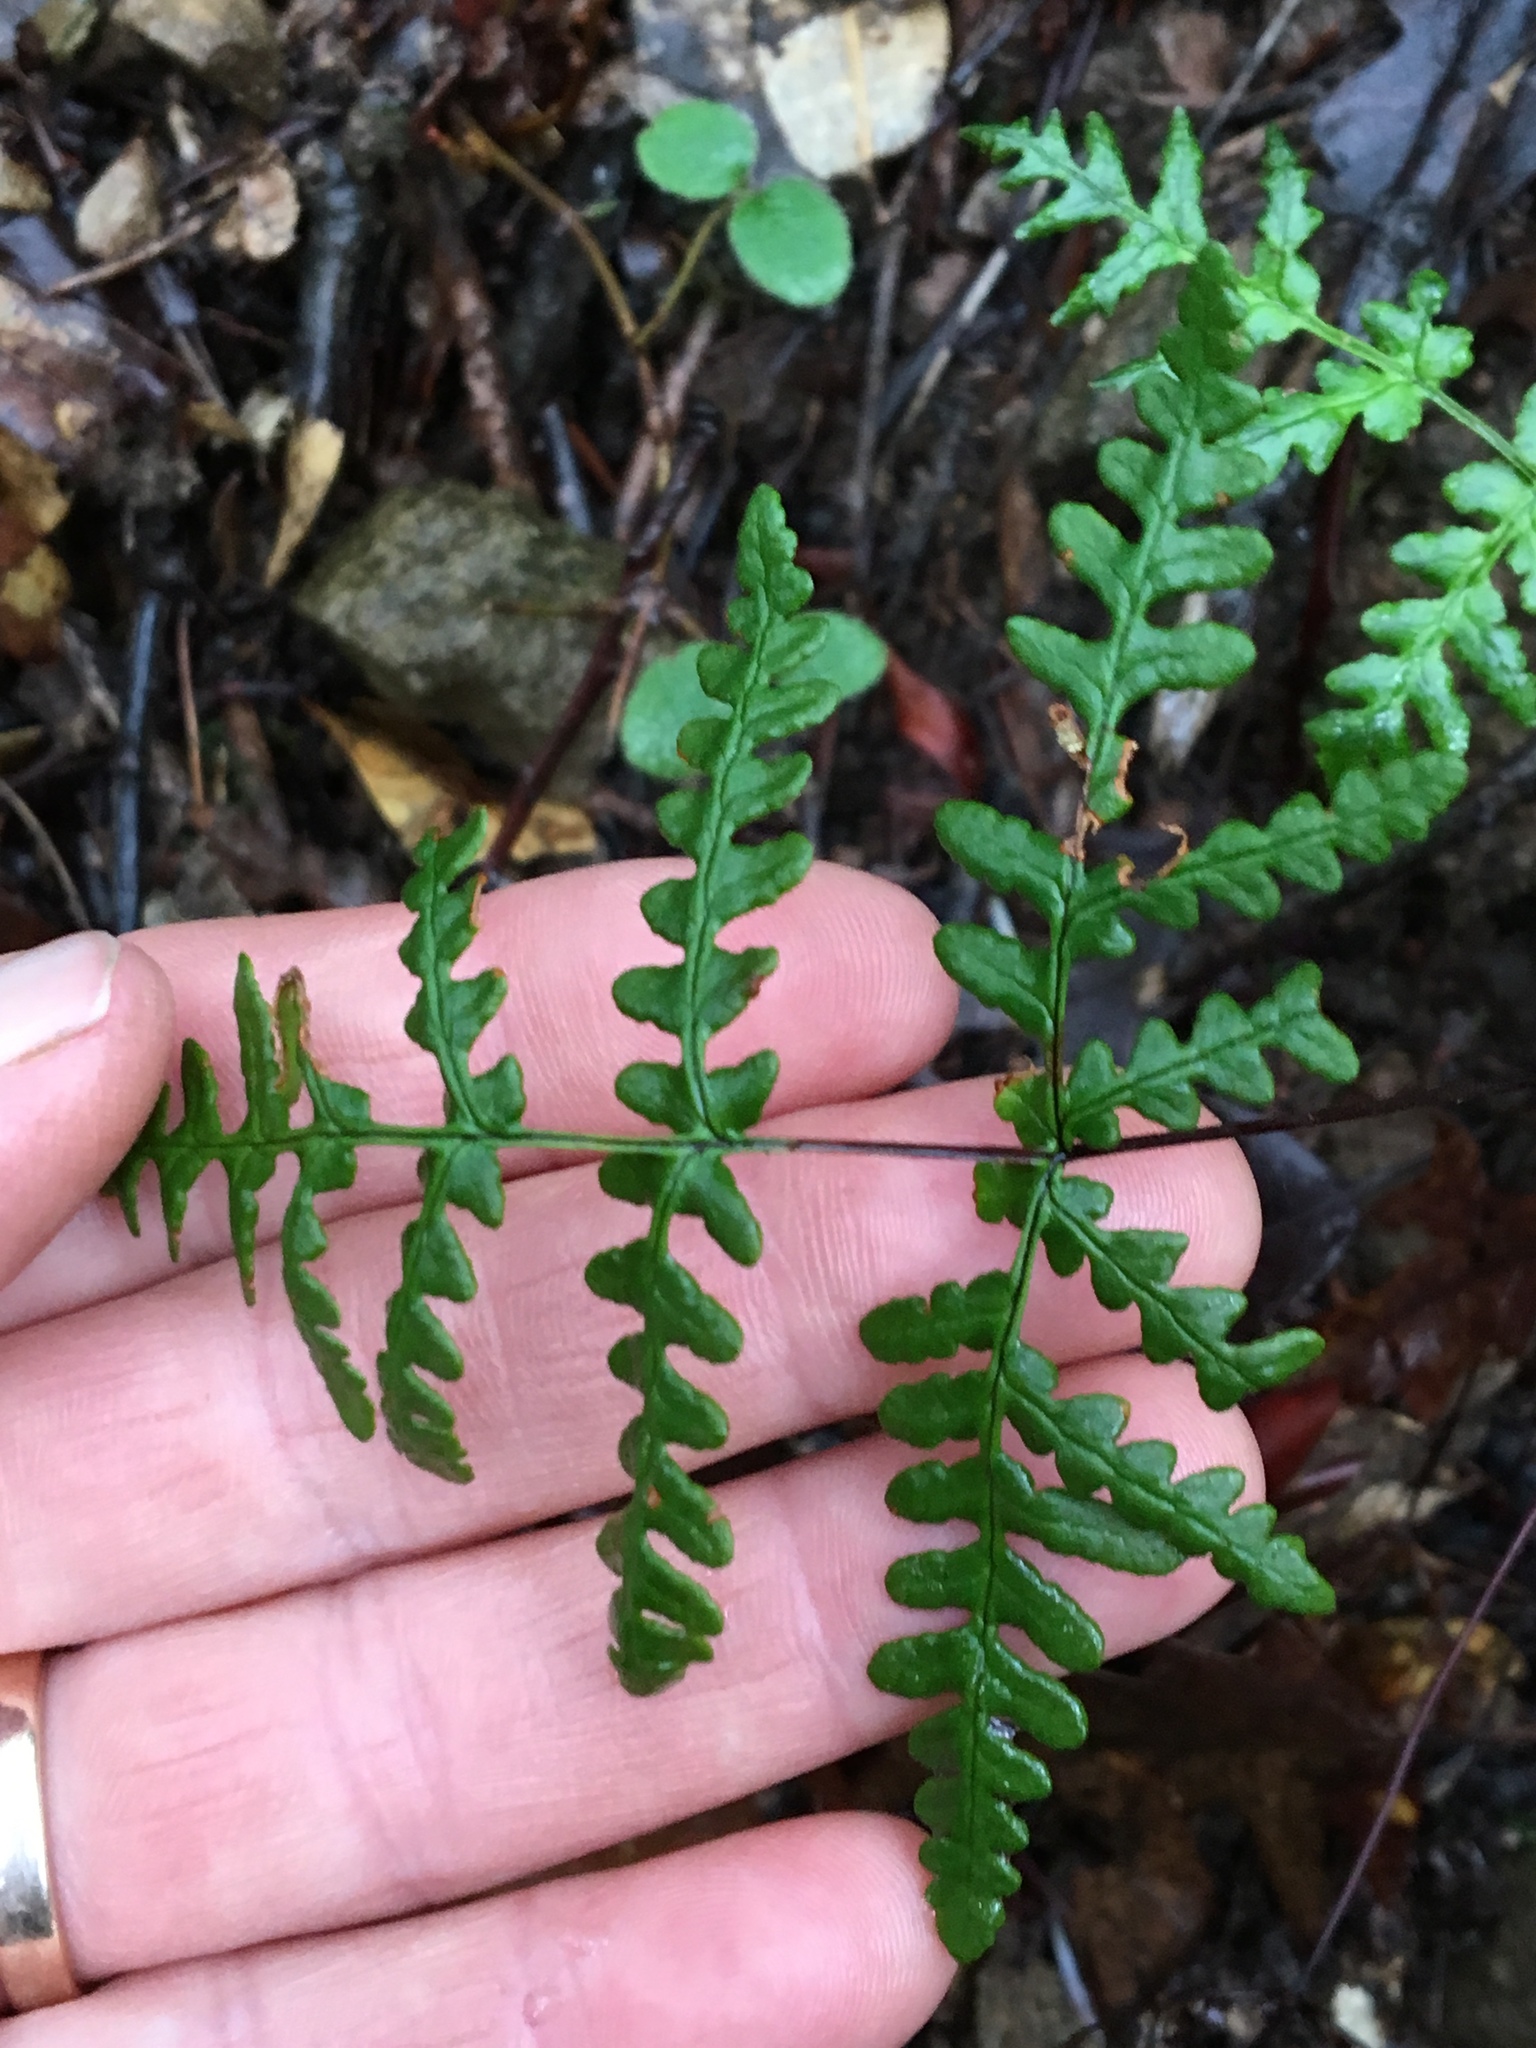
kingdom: Plantae
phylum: Tracheophyta
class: Polypodiopsida
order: Polypodiales
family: Pteridaceae
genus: Pentagramma
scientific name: Pentagramma triangularis
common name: Gold fern
